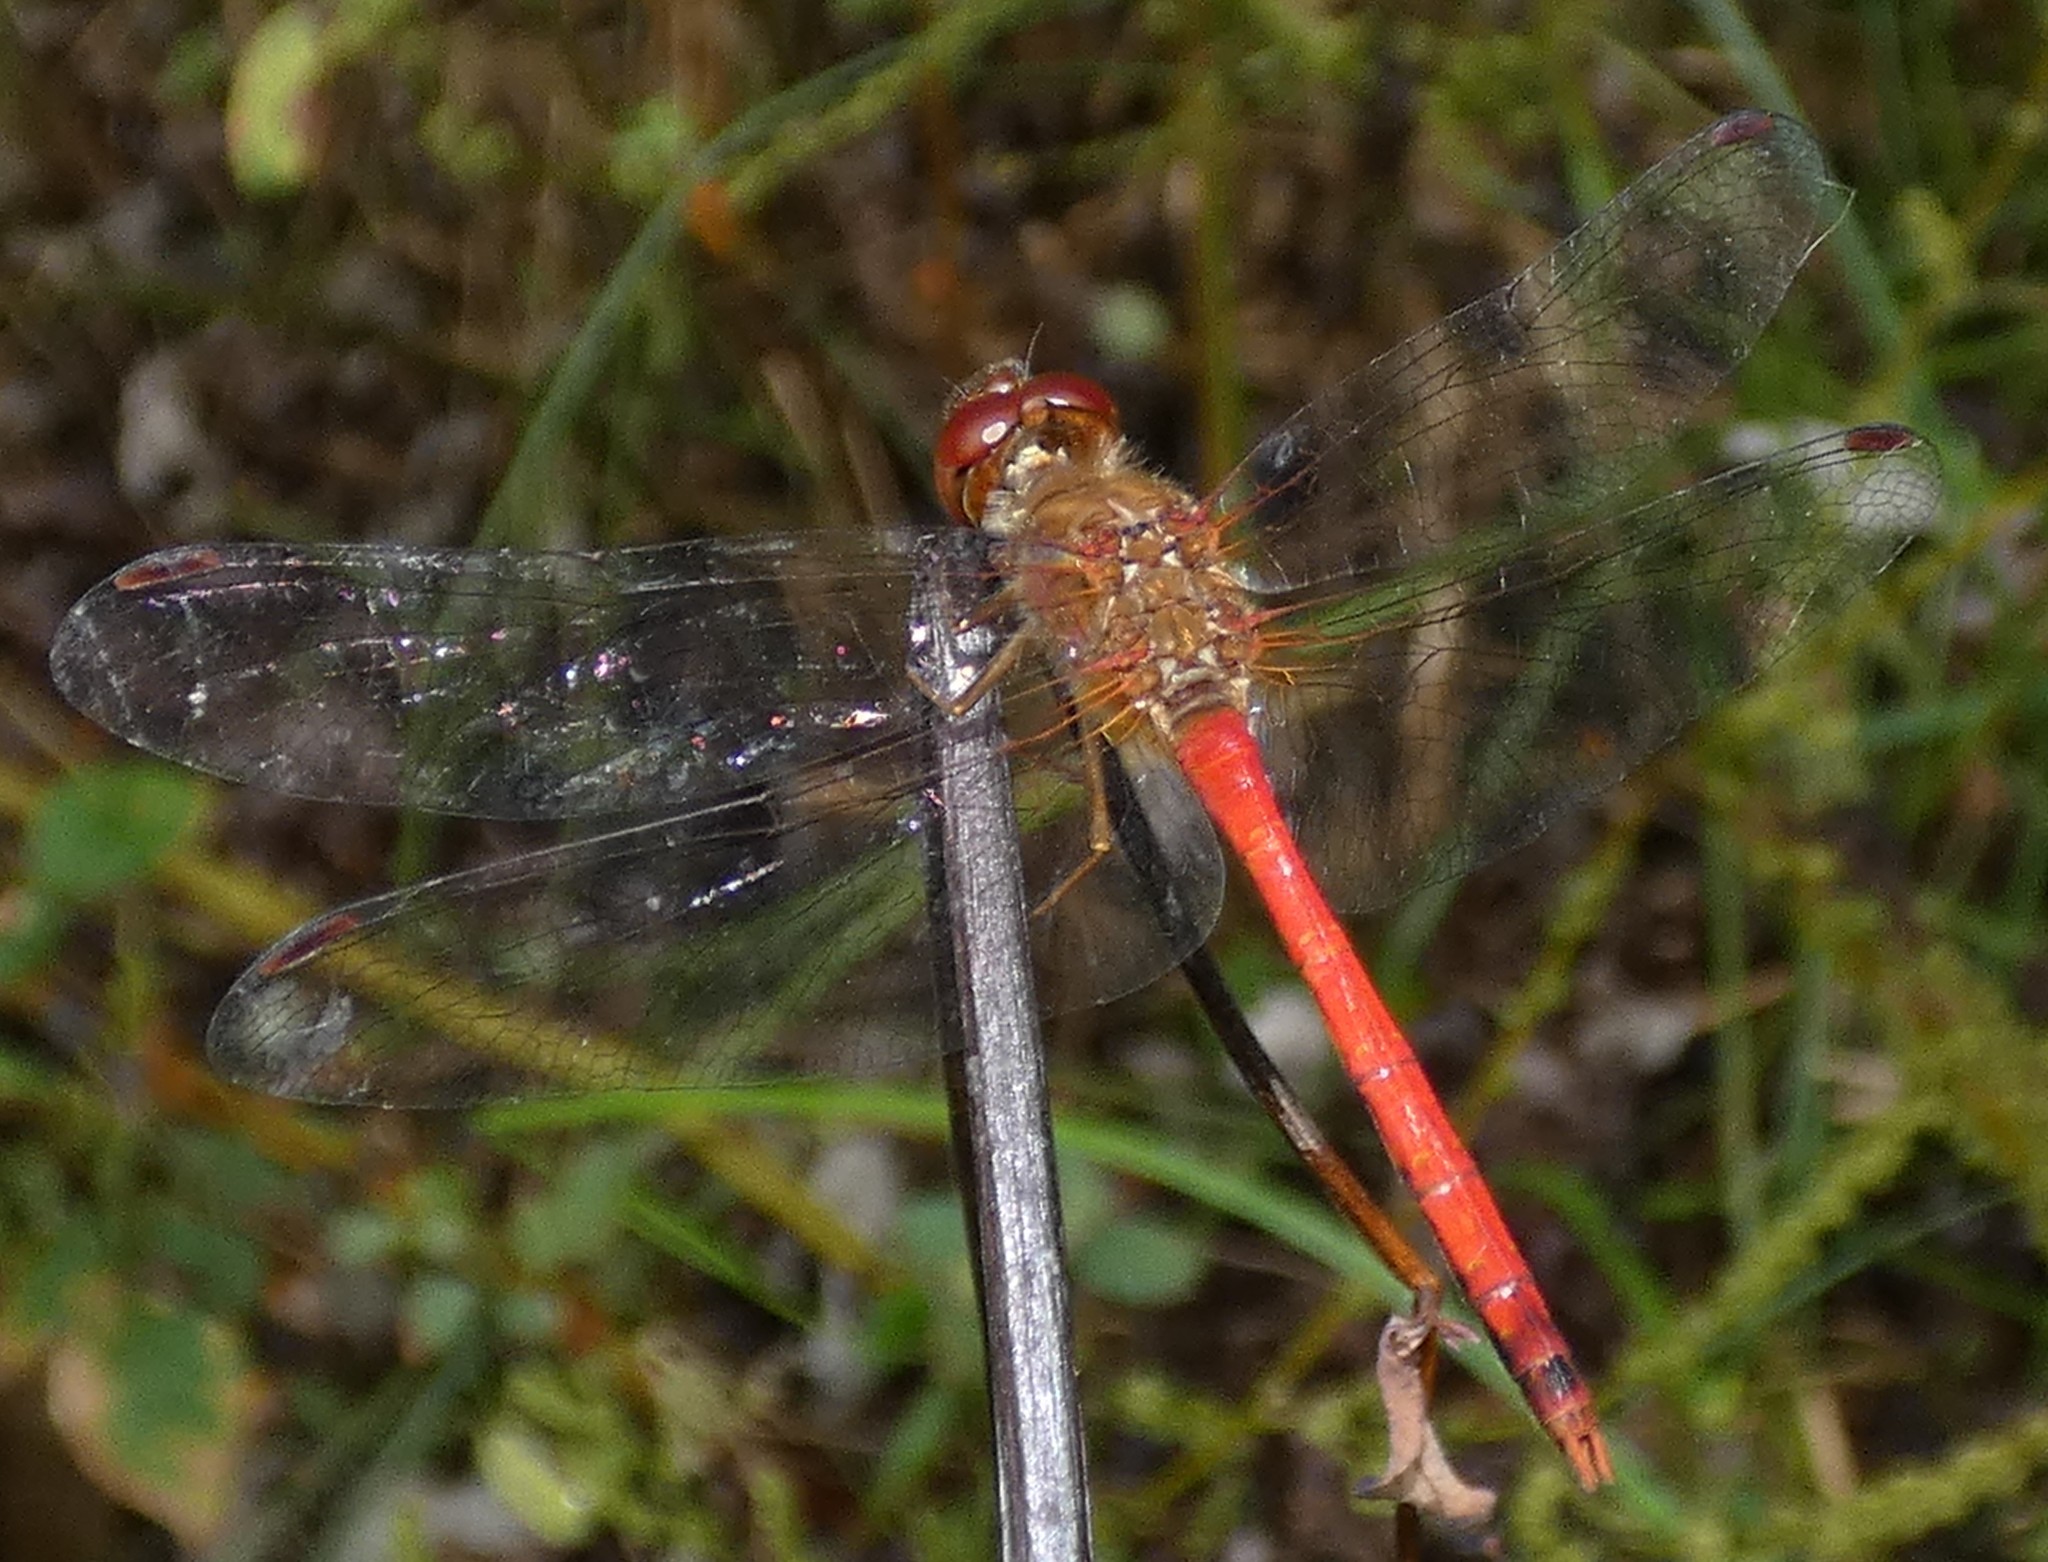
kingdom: Animalia
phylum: Arthropoda
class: Insecta
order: Odonata
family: Libellulidae
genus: Sympetrum
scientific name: Sympetrum vicinum
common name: Autumn meadowhawk
